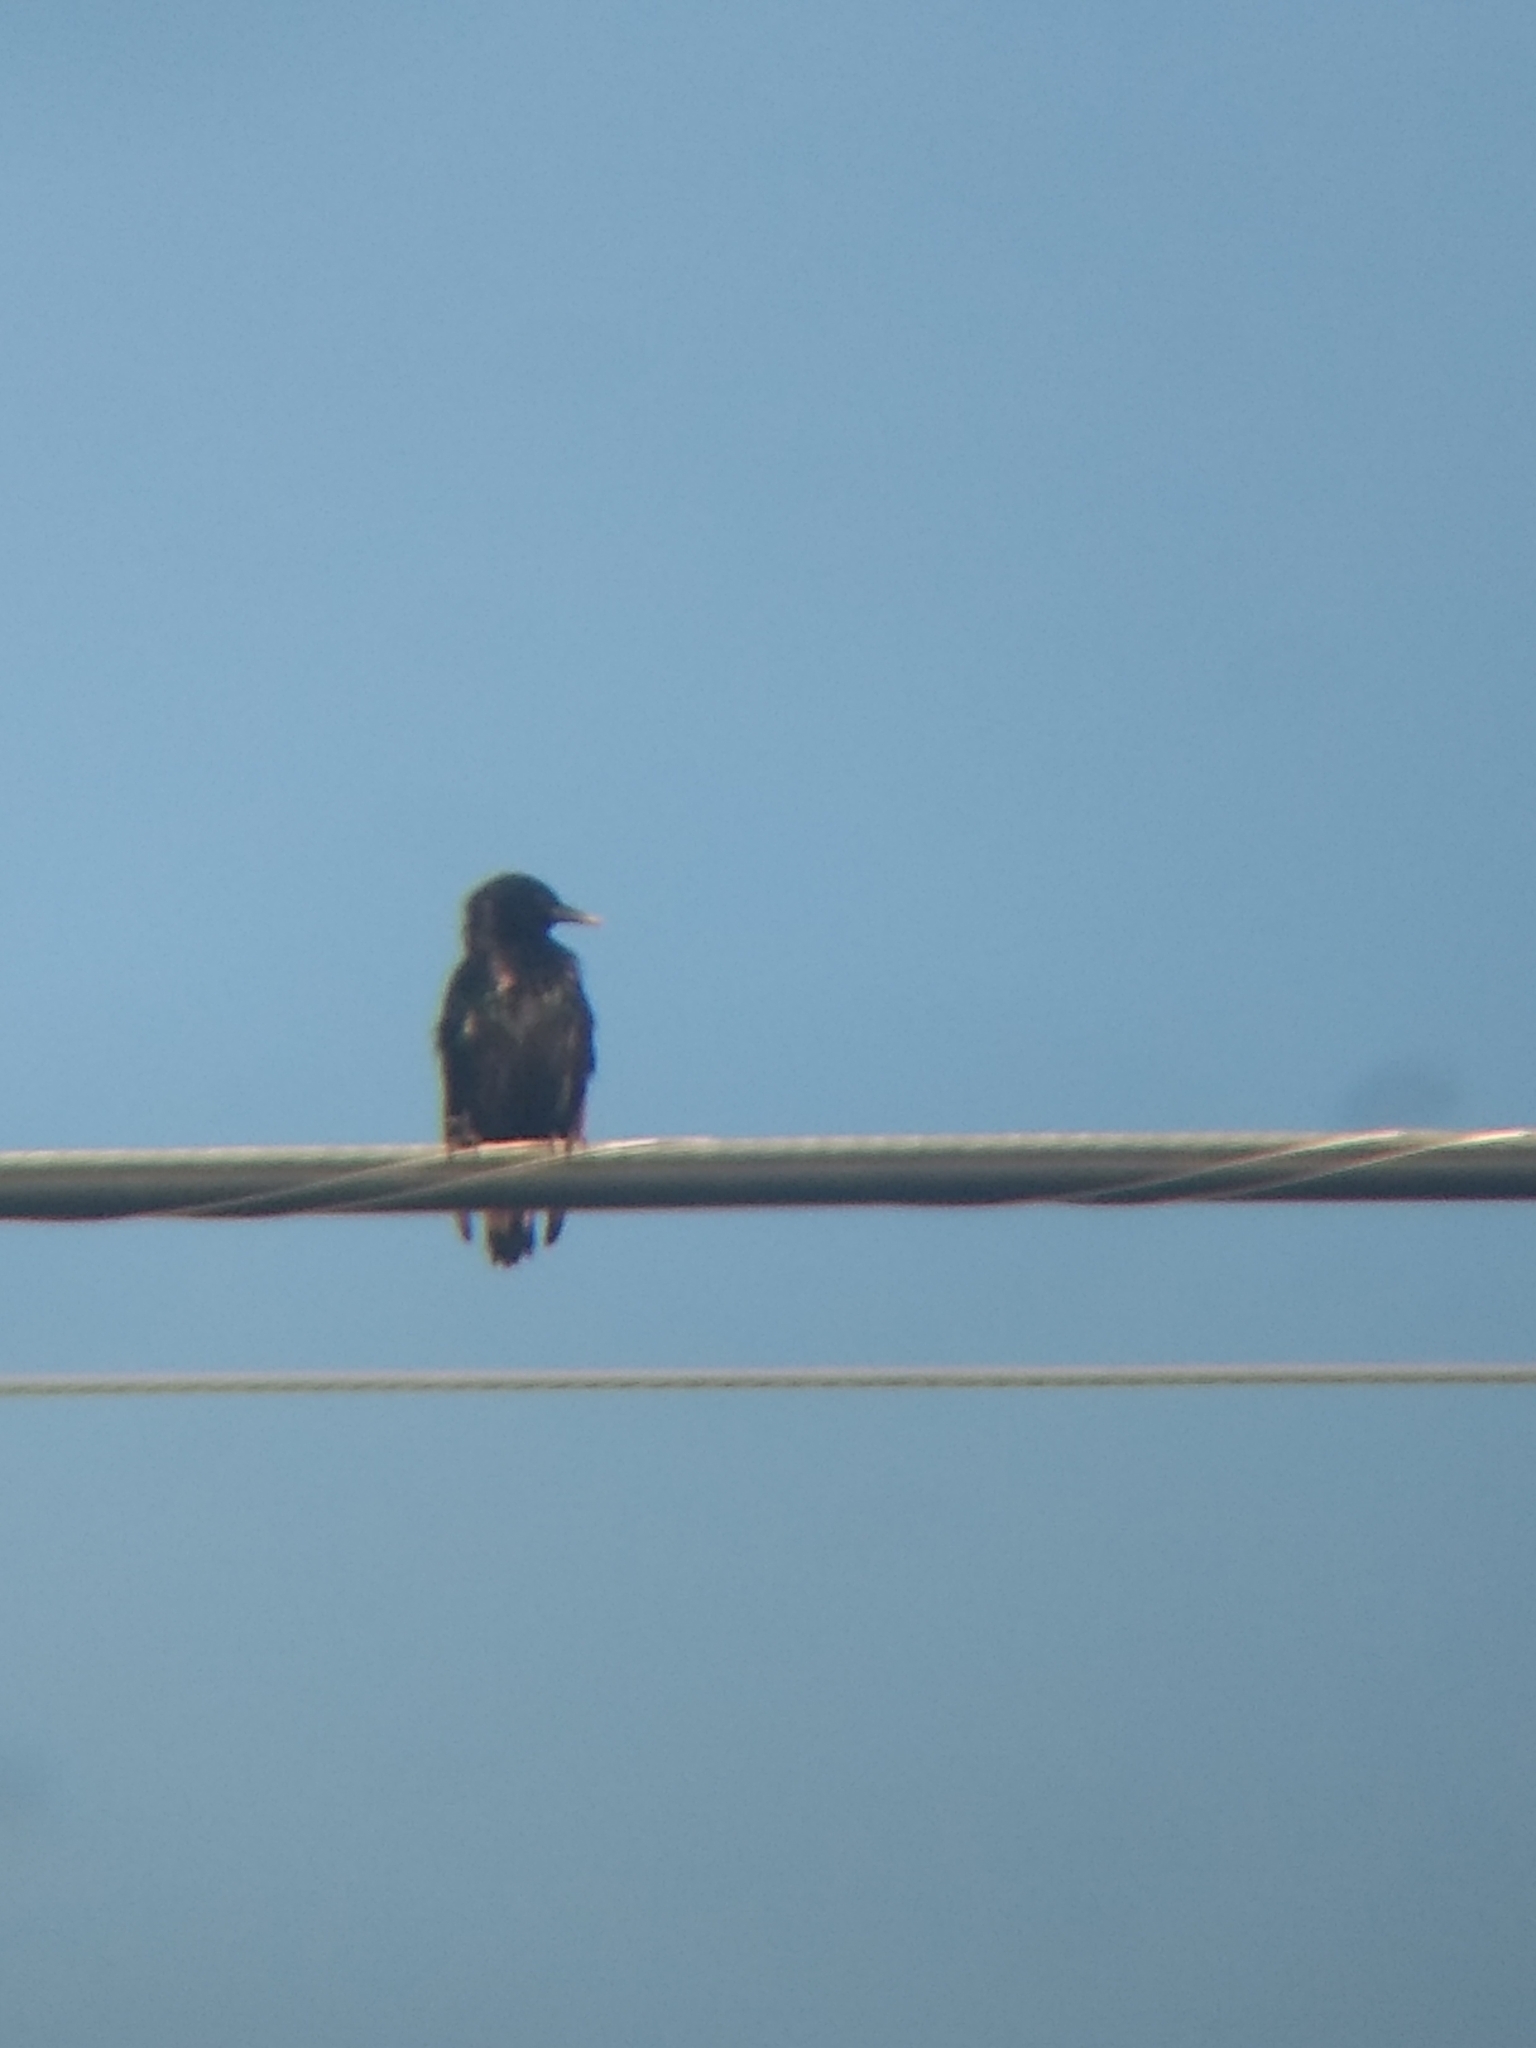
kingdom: Animalia
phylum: Chordata
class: Aves
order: Passeriformes
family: Sturnidae
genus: Sturnus
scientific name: Sturnus vulgaris
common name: Common starling
